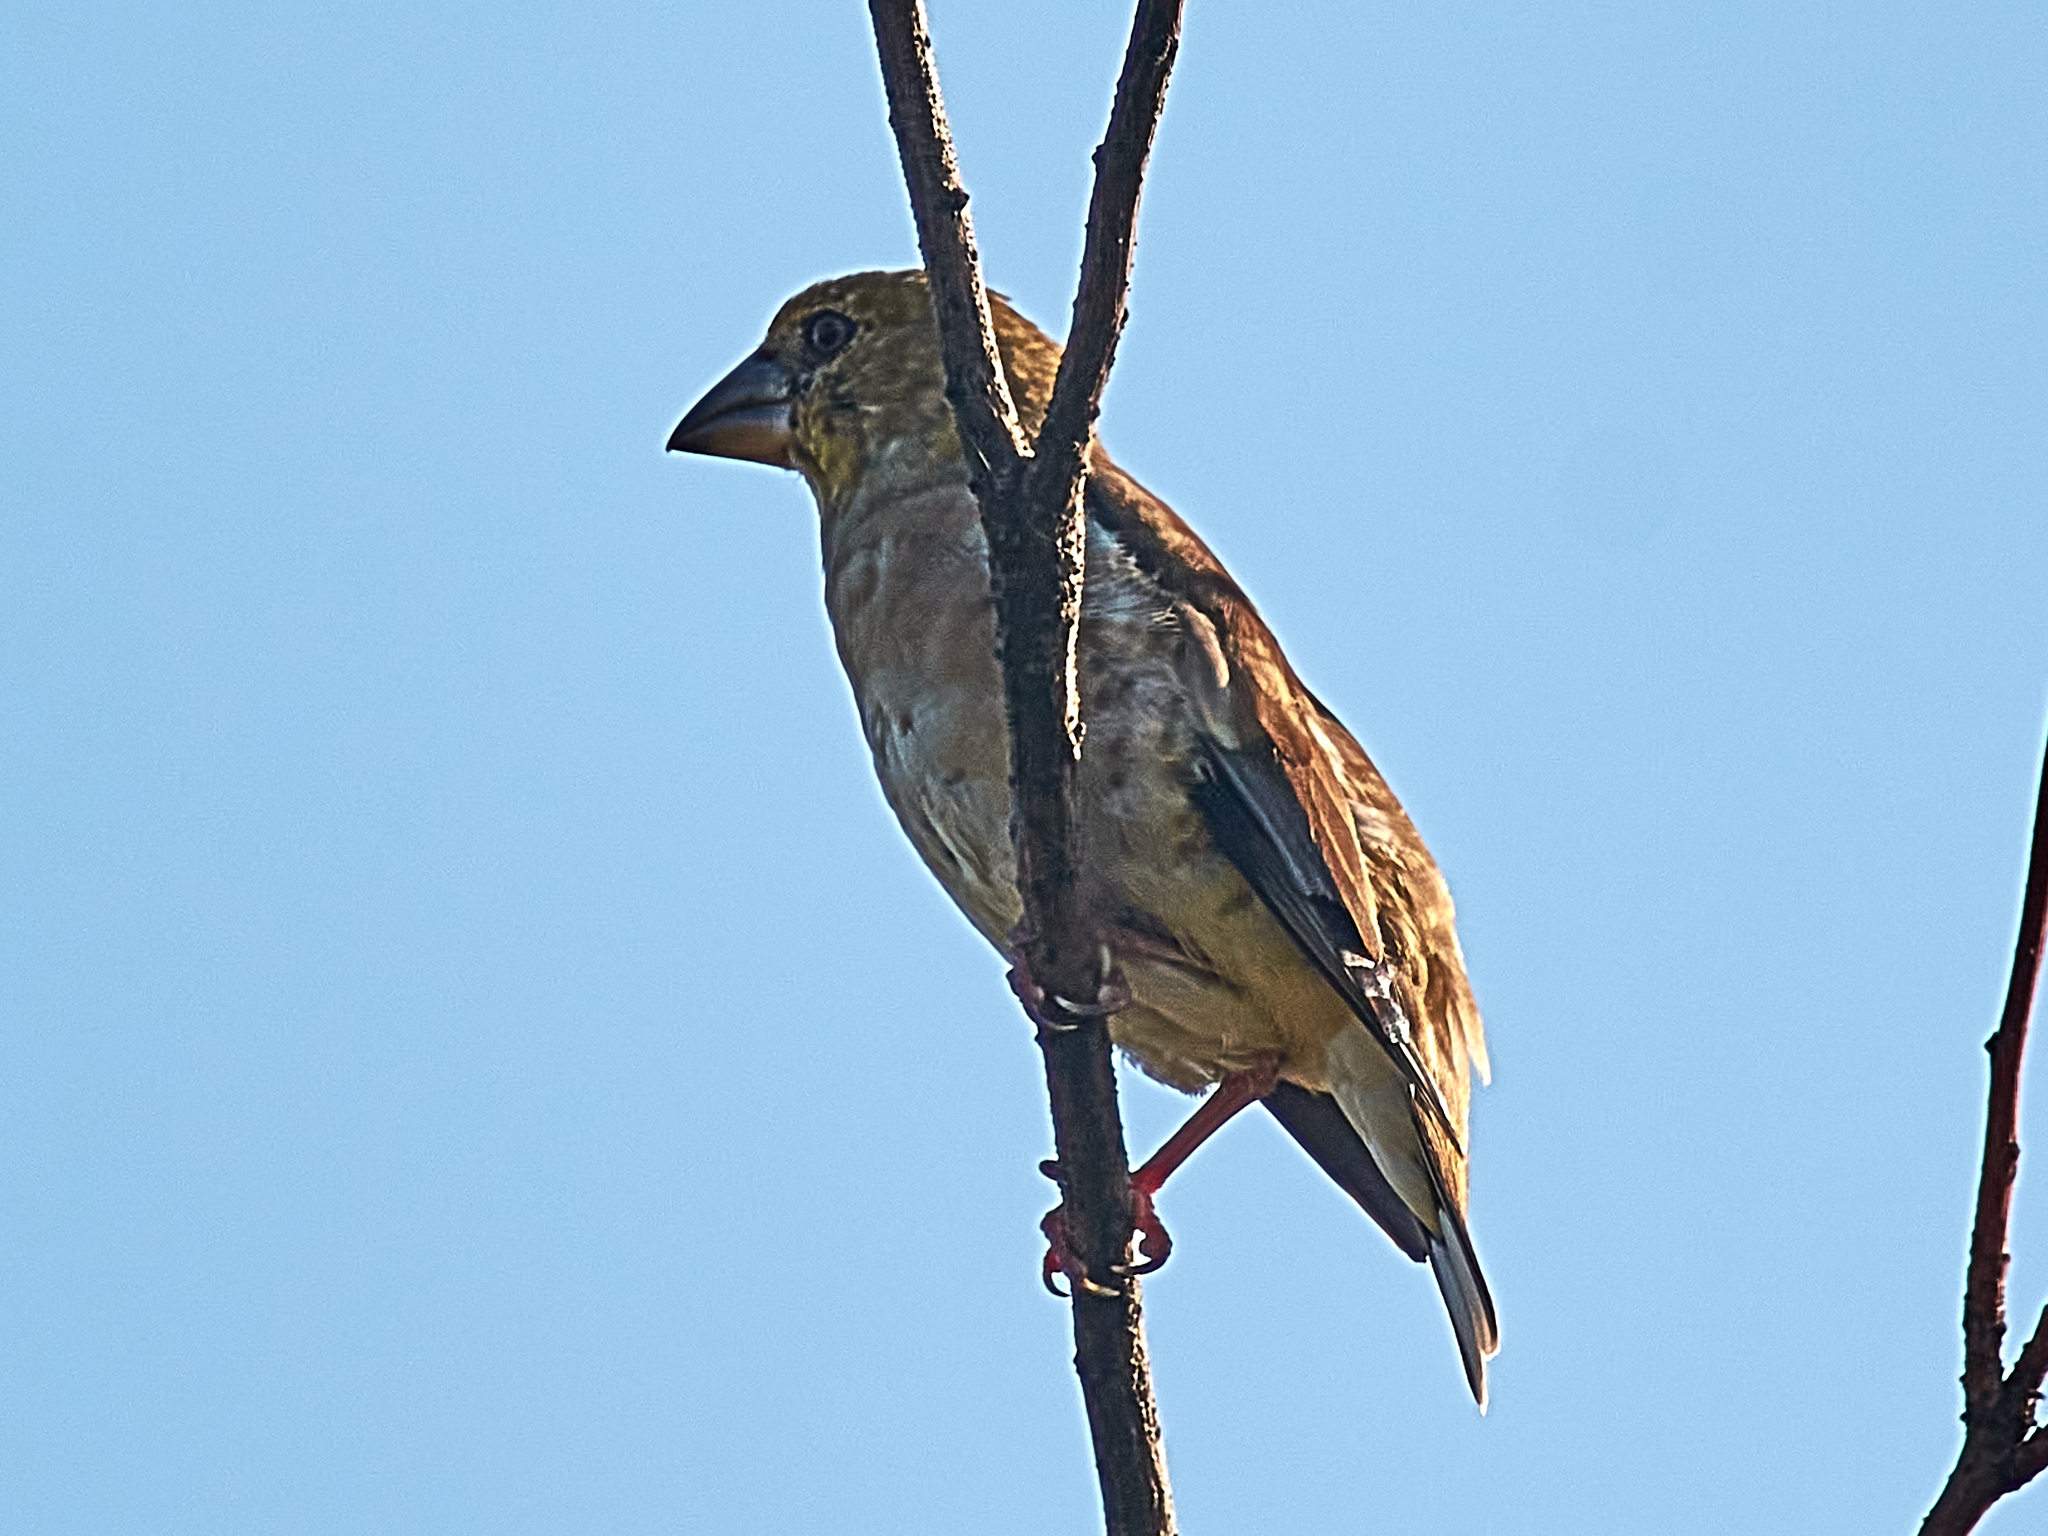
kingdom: Animalia
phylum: Chordata
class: Aves
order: Passeriformes
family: Fringillidae
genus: Coccothraustes
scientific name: Coccothraustes coccothraustes
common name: Hawfinch
